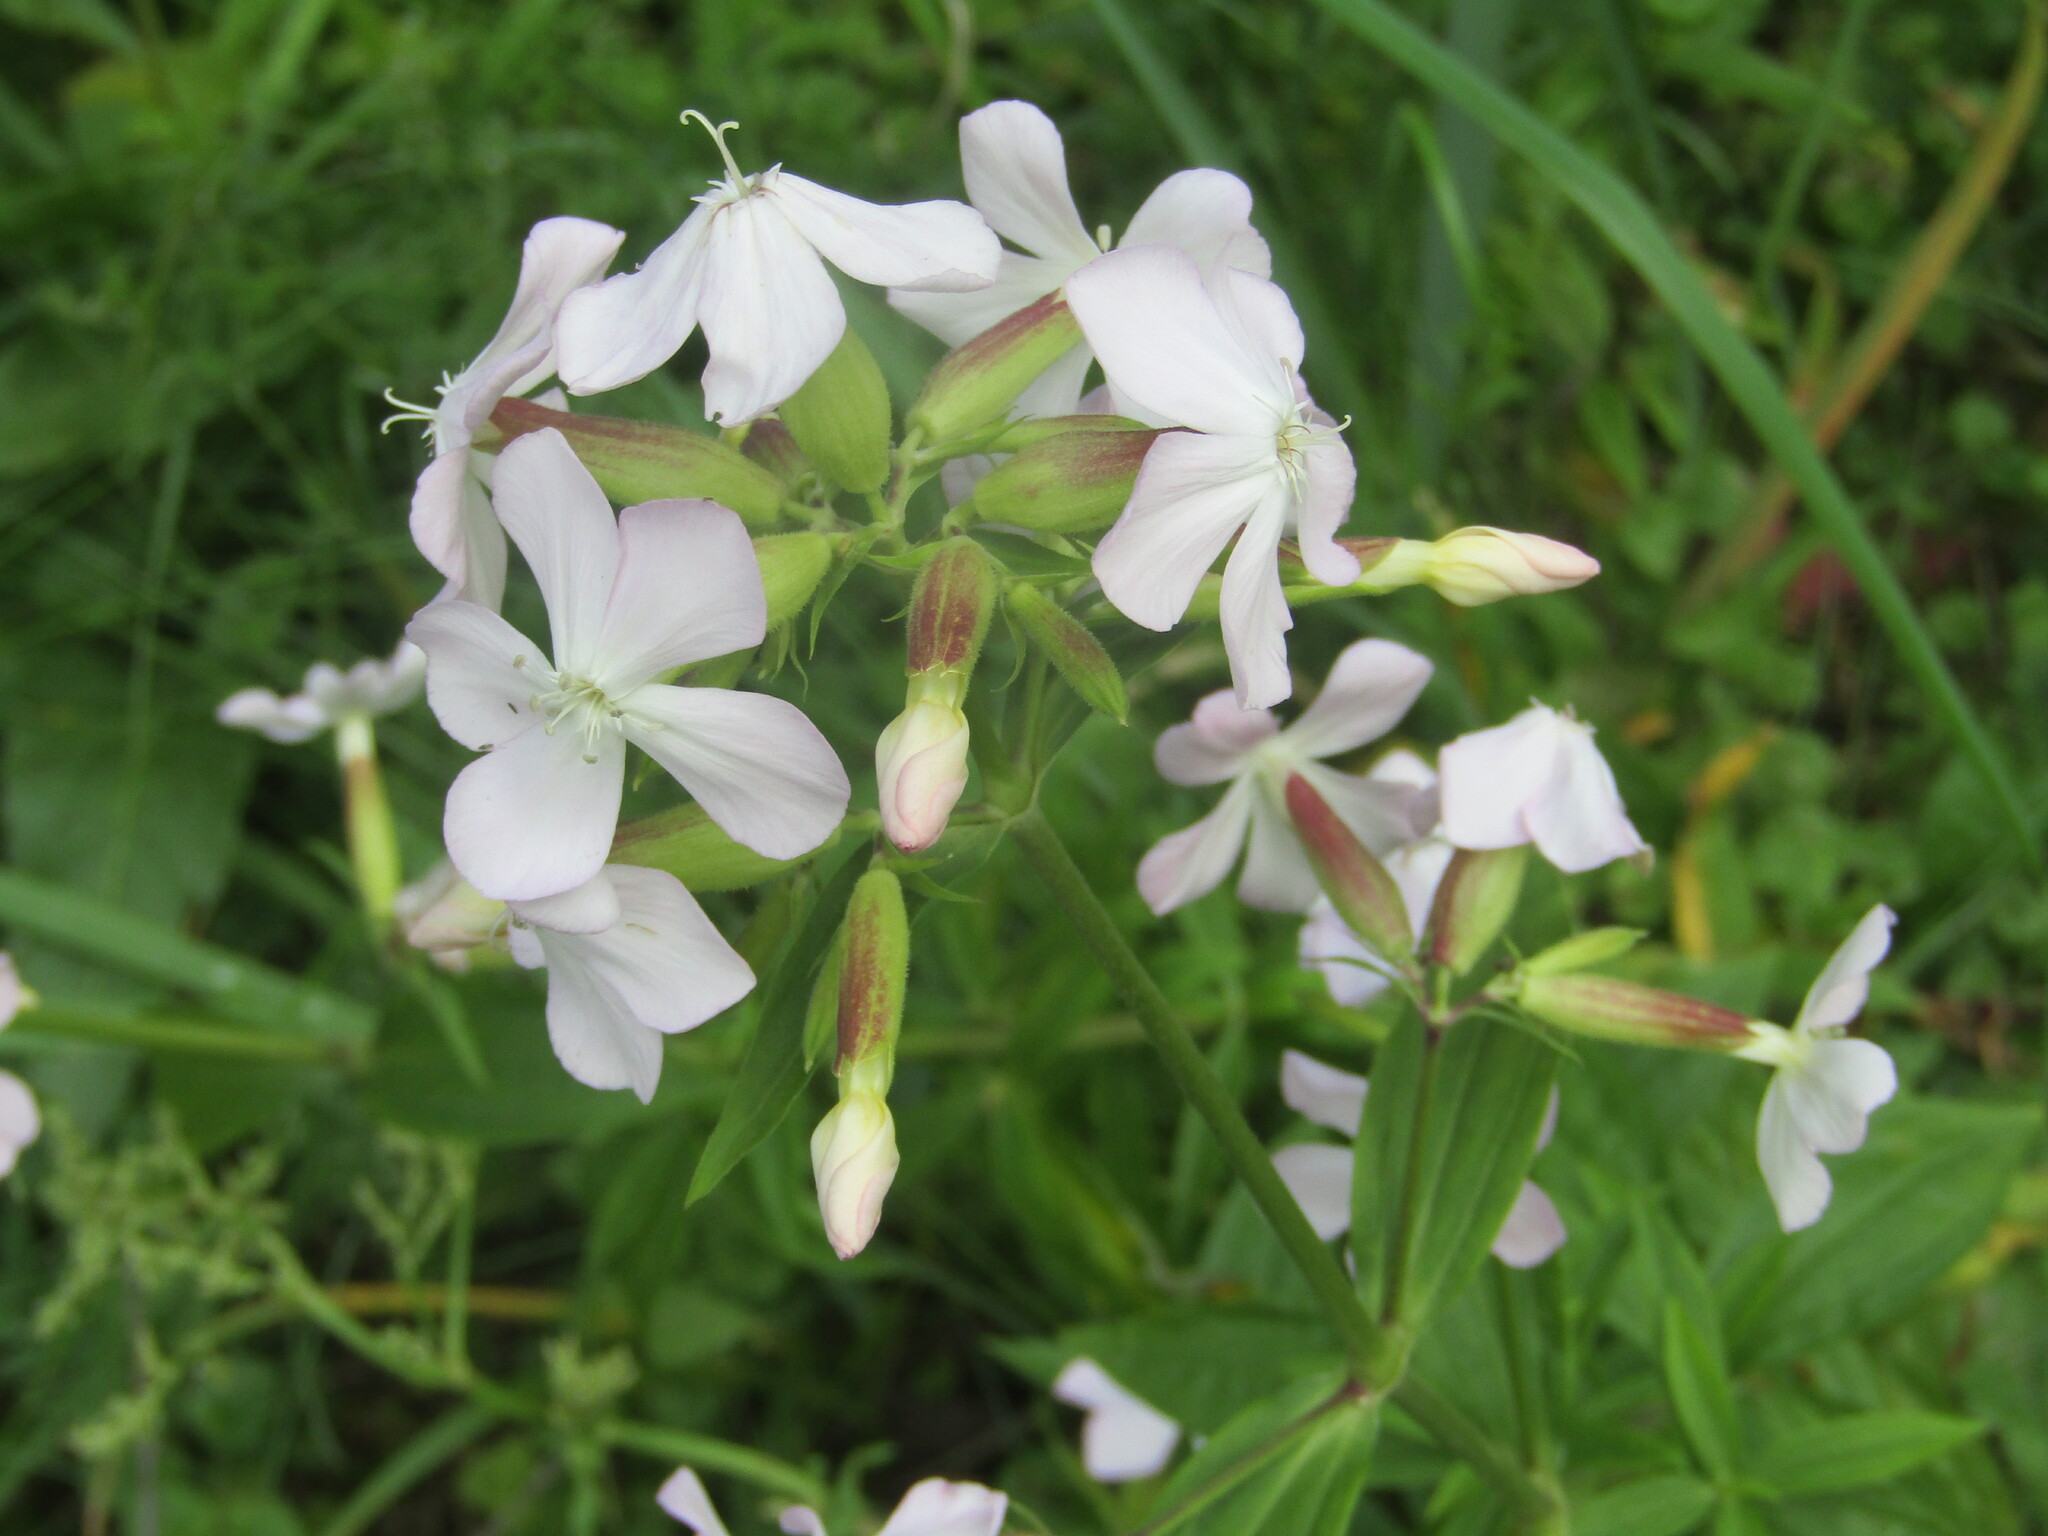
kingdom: Plantae
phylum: Tracheophyta
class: Magnoliopsida
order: Caryophyllales
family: Caryophyllaceae
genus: Saponaria
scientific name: Saponaria officinalis
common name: Soapwort
